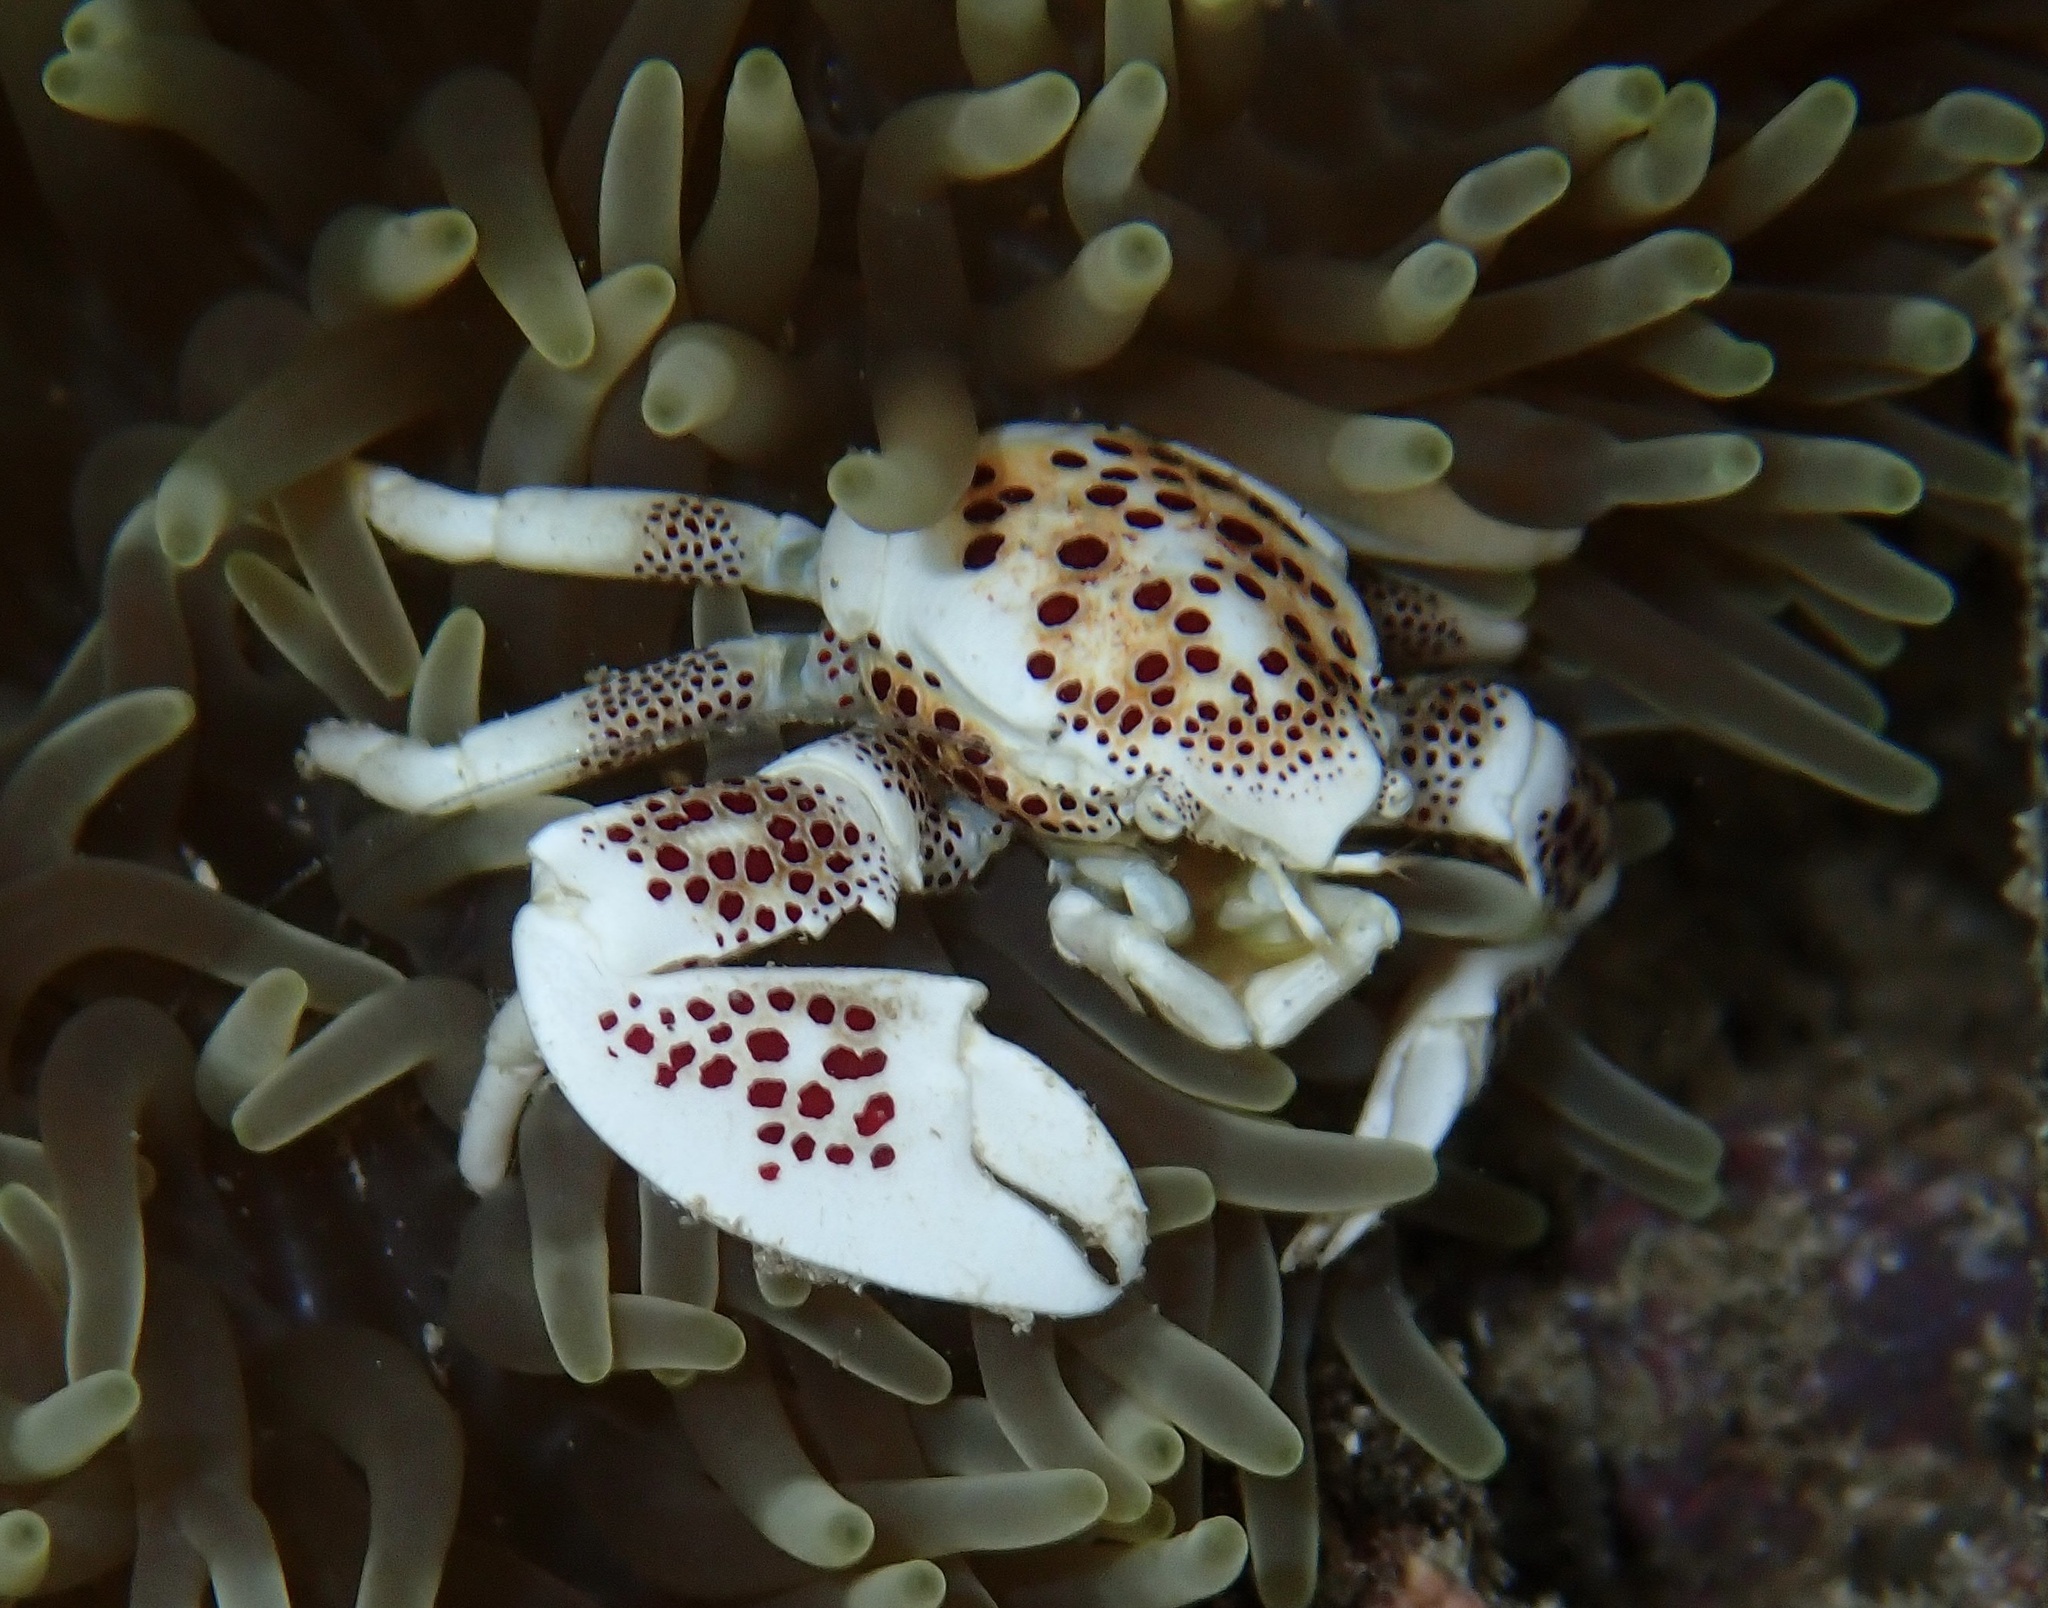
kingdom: Animalia
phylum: Arthropoda
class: Malacostraca
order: Decapoda
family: Porcellanidae
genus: Neopetrolisthes
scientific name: Neopetrolisthes maculatus
